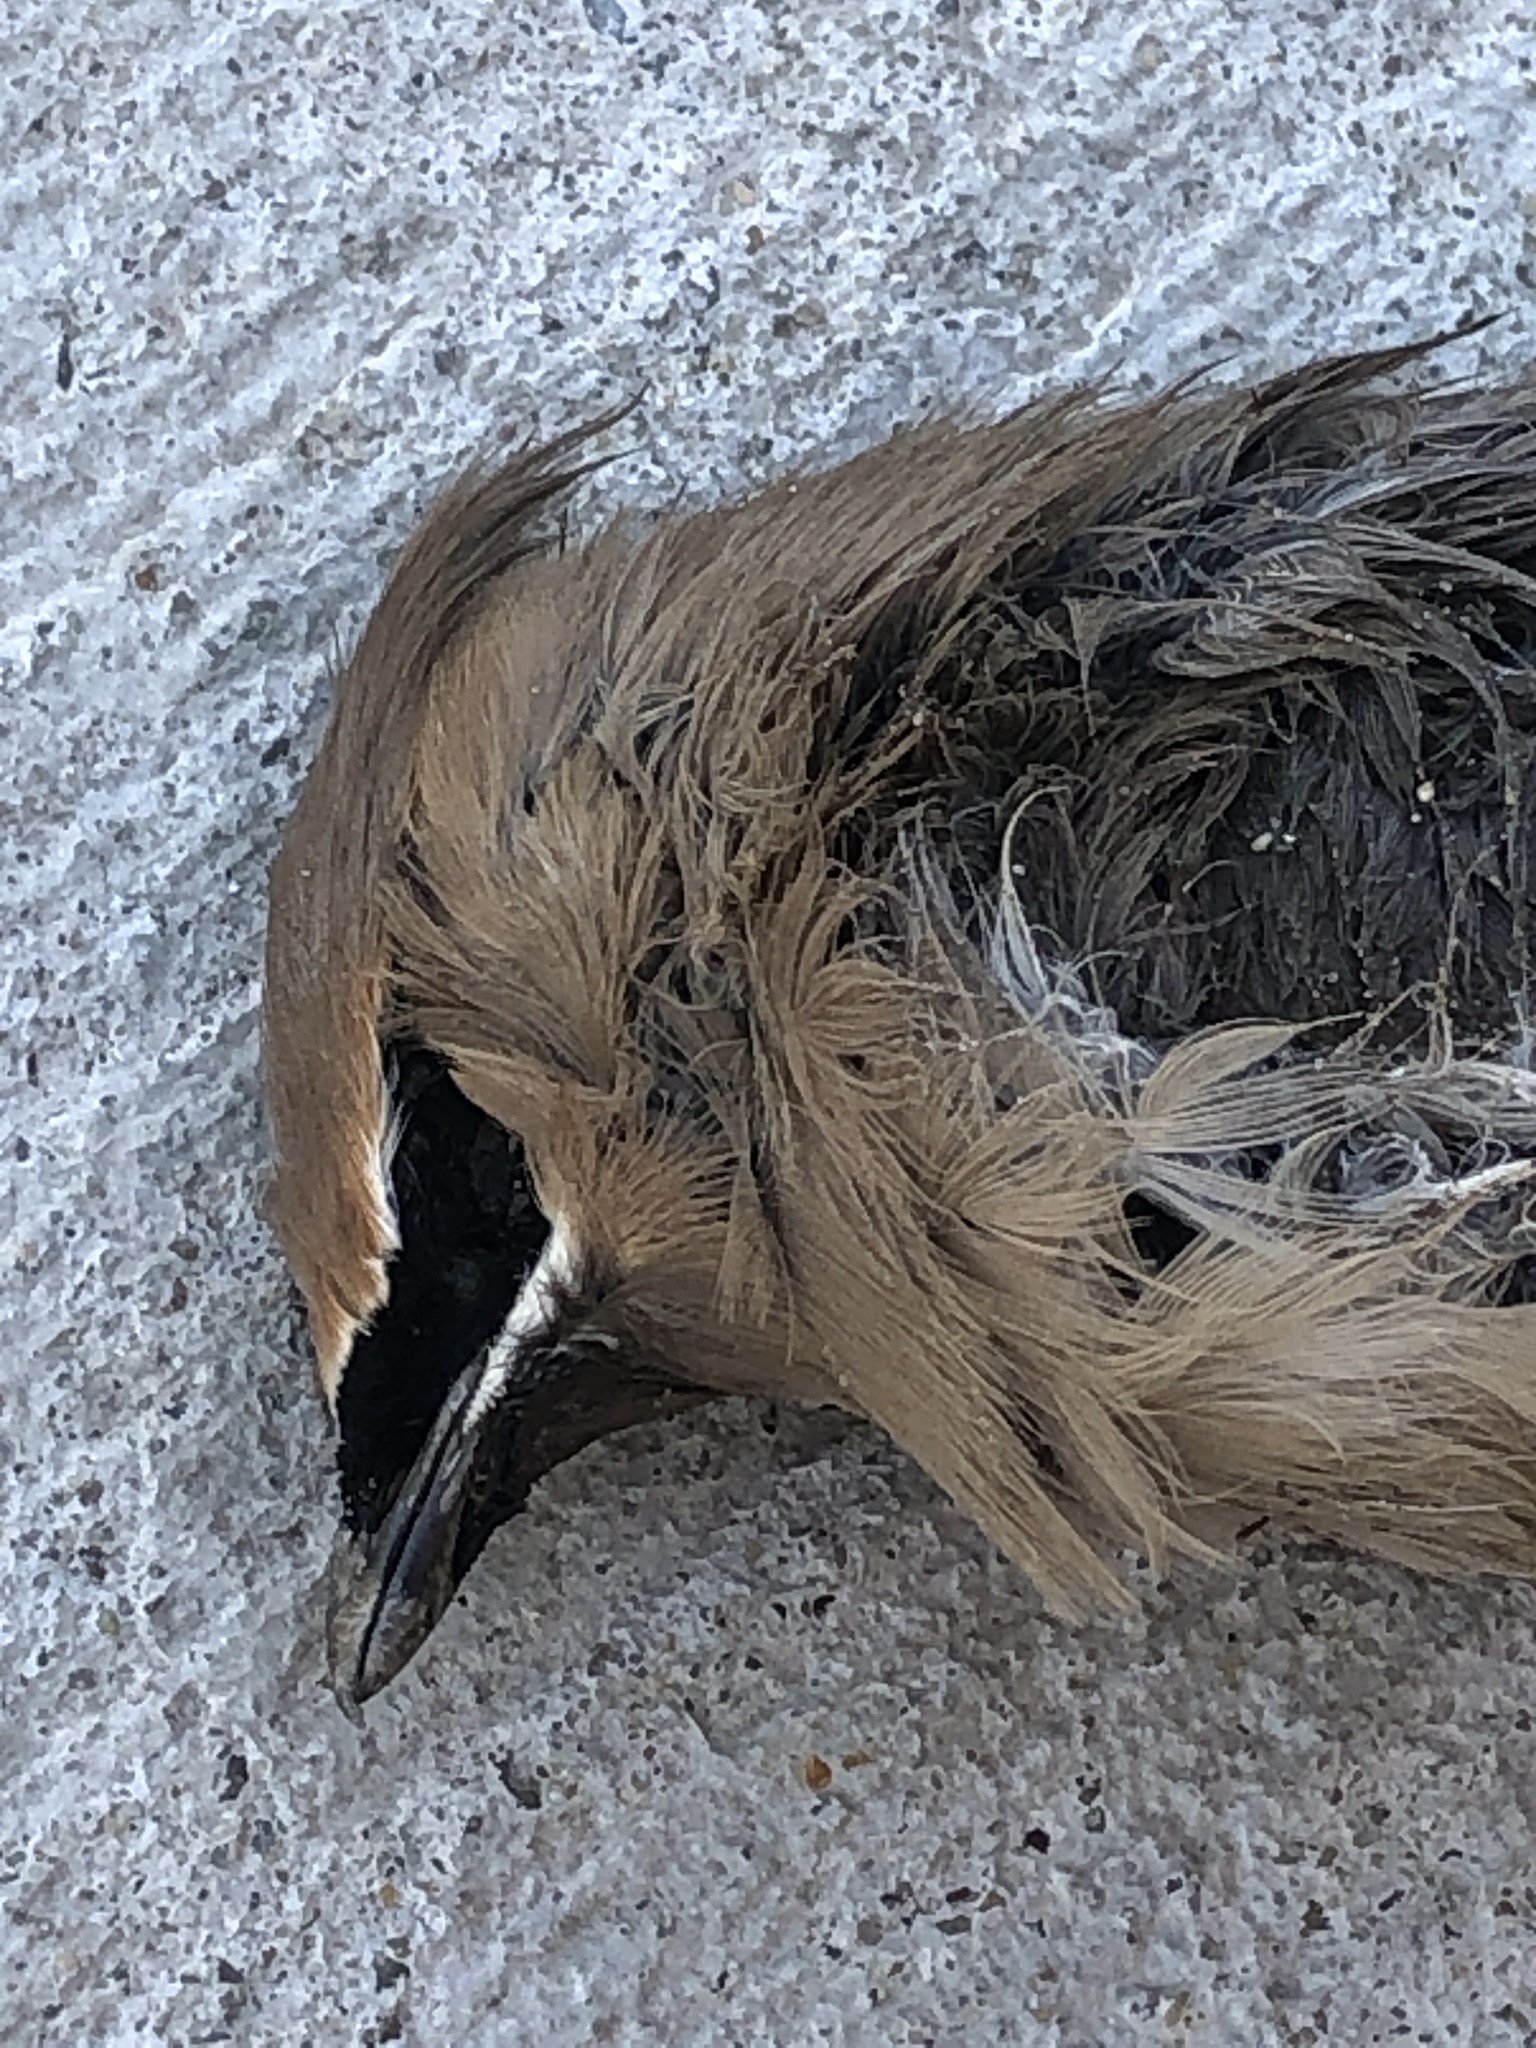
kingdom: Animalia
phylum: Chordata
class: Aves
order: Passeriformes
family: Bombycillidae
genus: Bombycilla
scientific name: Bombycilla cedrorum
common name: Cedar waxwing
